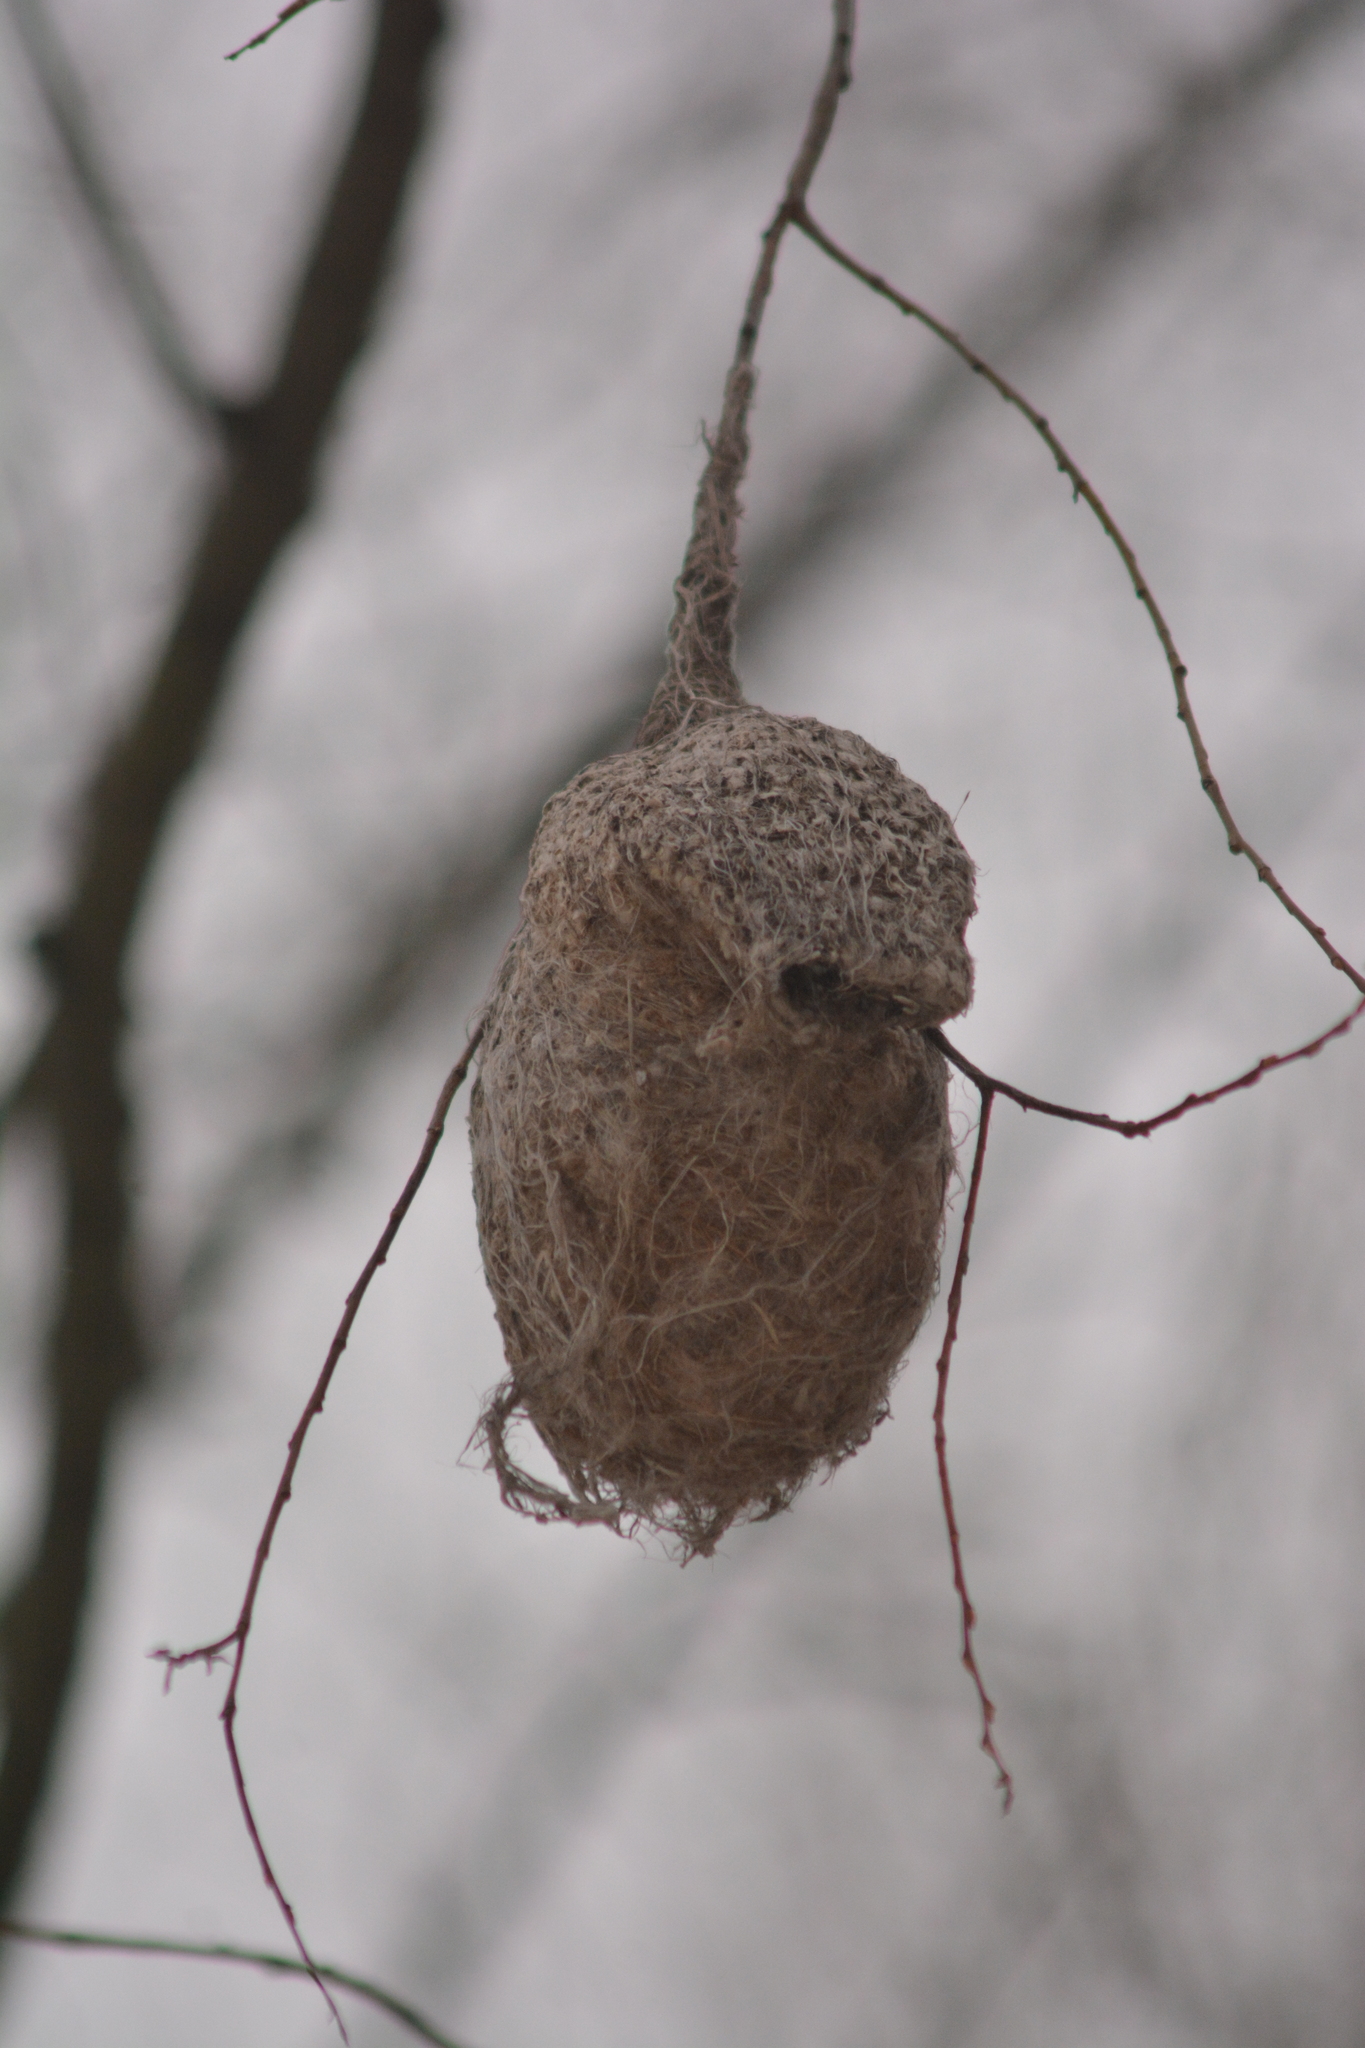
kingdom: Animalia
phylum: Chordata
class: Aves
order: Passeriformes
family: Remizidae
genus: Remiz
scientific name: Remiz pendulinus
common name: Eurasian penduline tit
